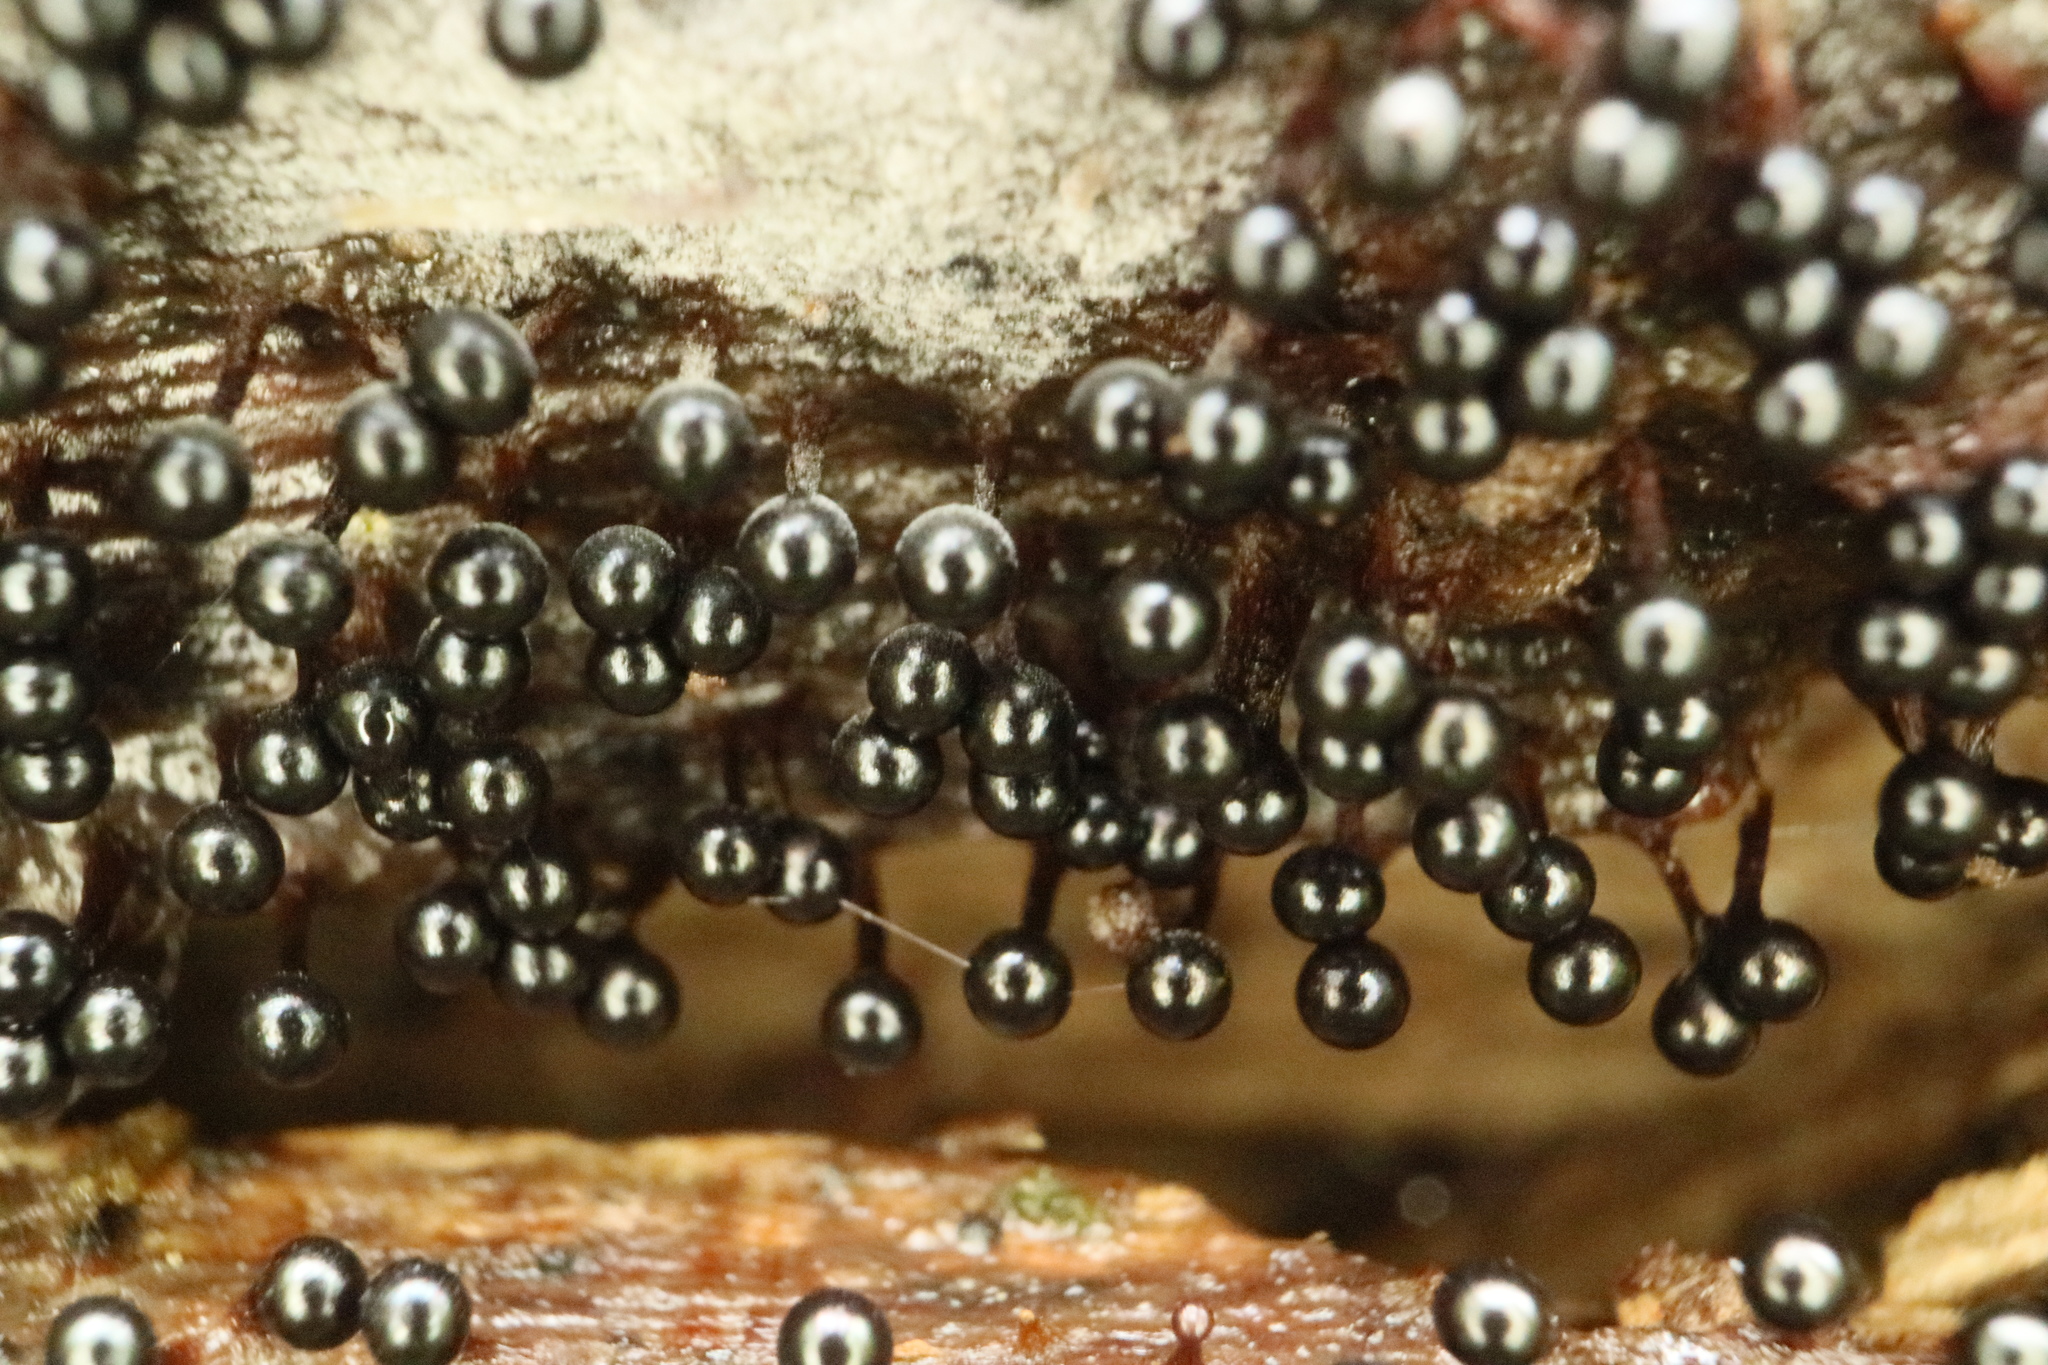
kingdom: Protozoa
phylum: Mycetozoa
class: Myxomycetes
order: Trichiales
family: Trichiaceae
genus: Metatrichia
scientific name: Metatrichia floriformis
